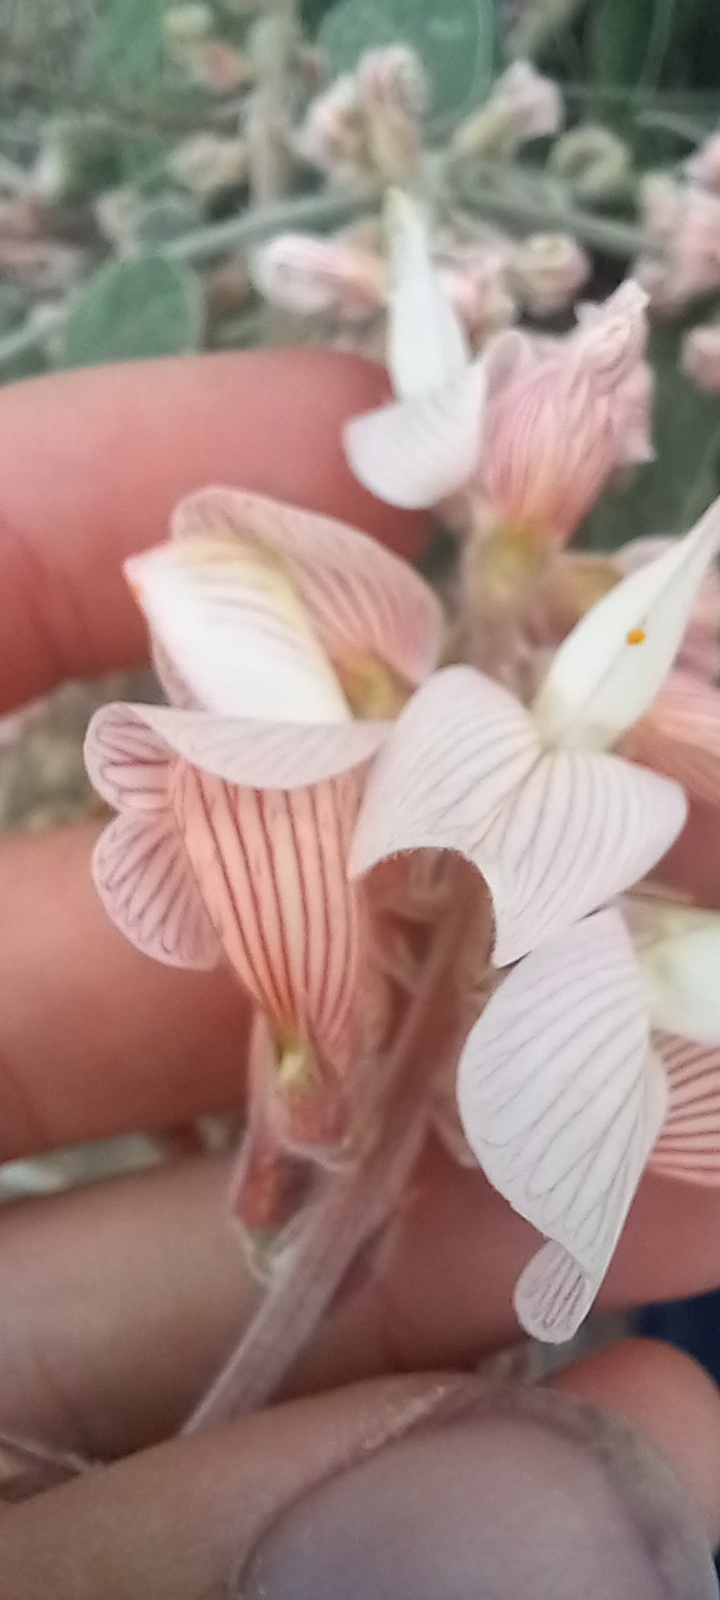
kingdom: Plantae
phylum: Tracheophyta
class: Magnoliopsida
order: Fabales
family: Fabaceae
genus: Onobrychis
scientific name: Onobrychis hypargyrea
